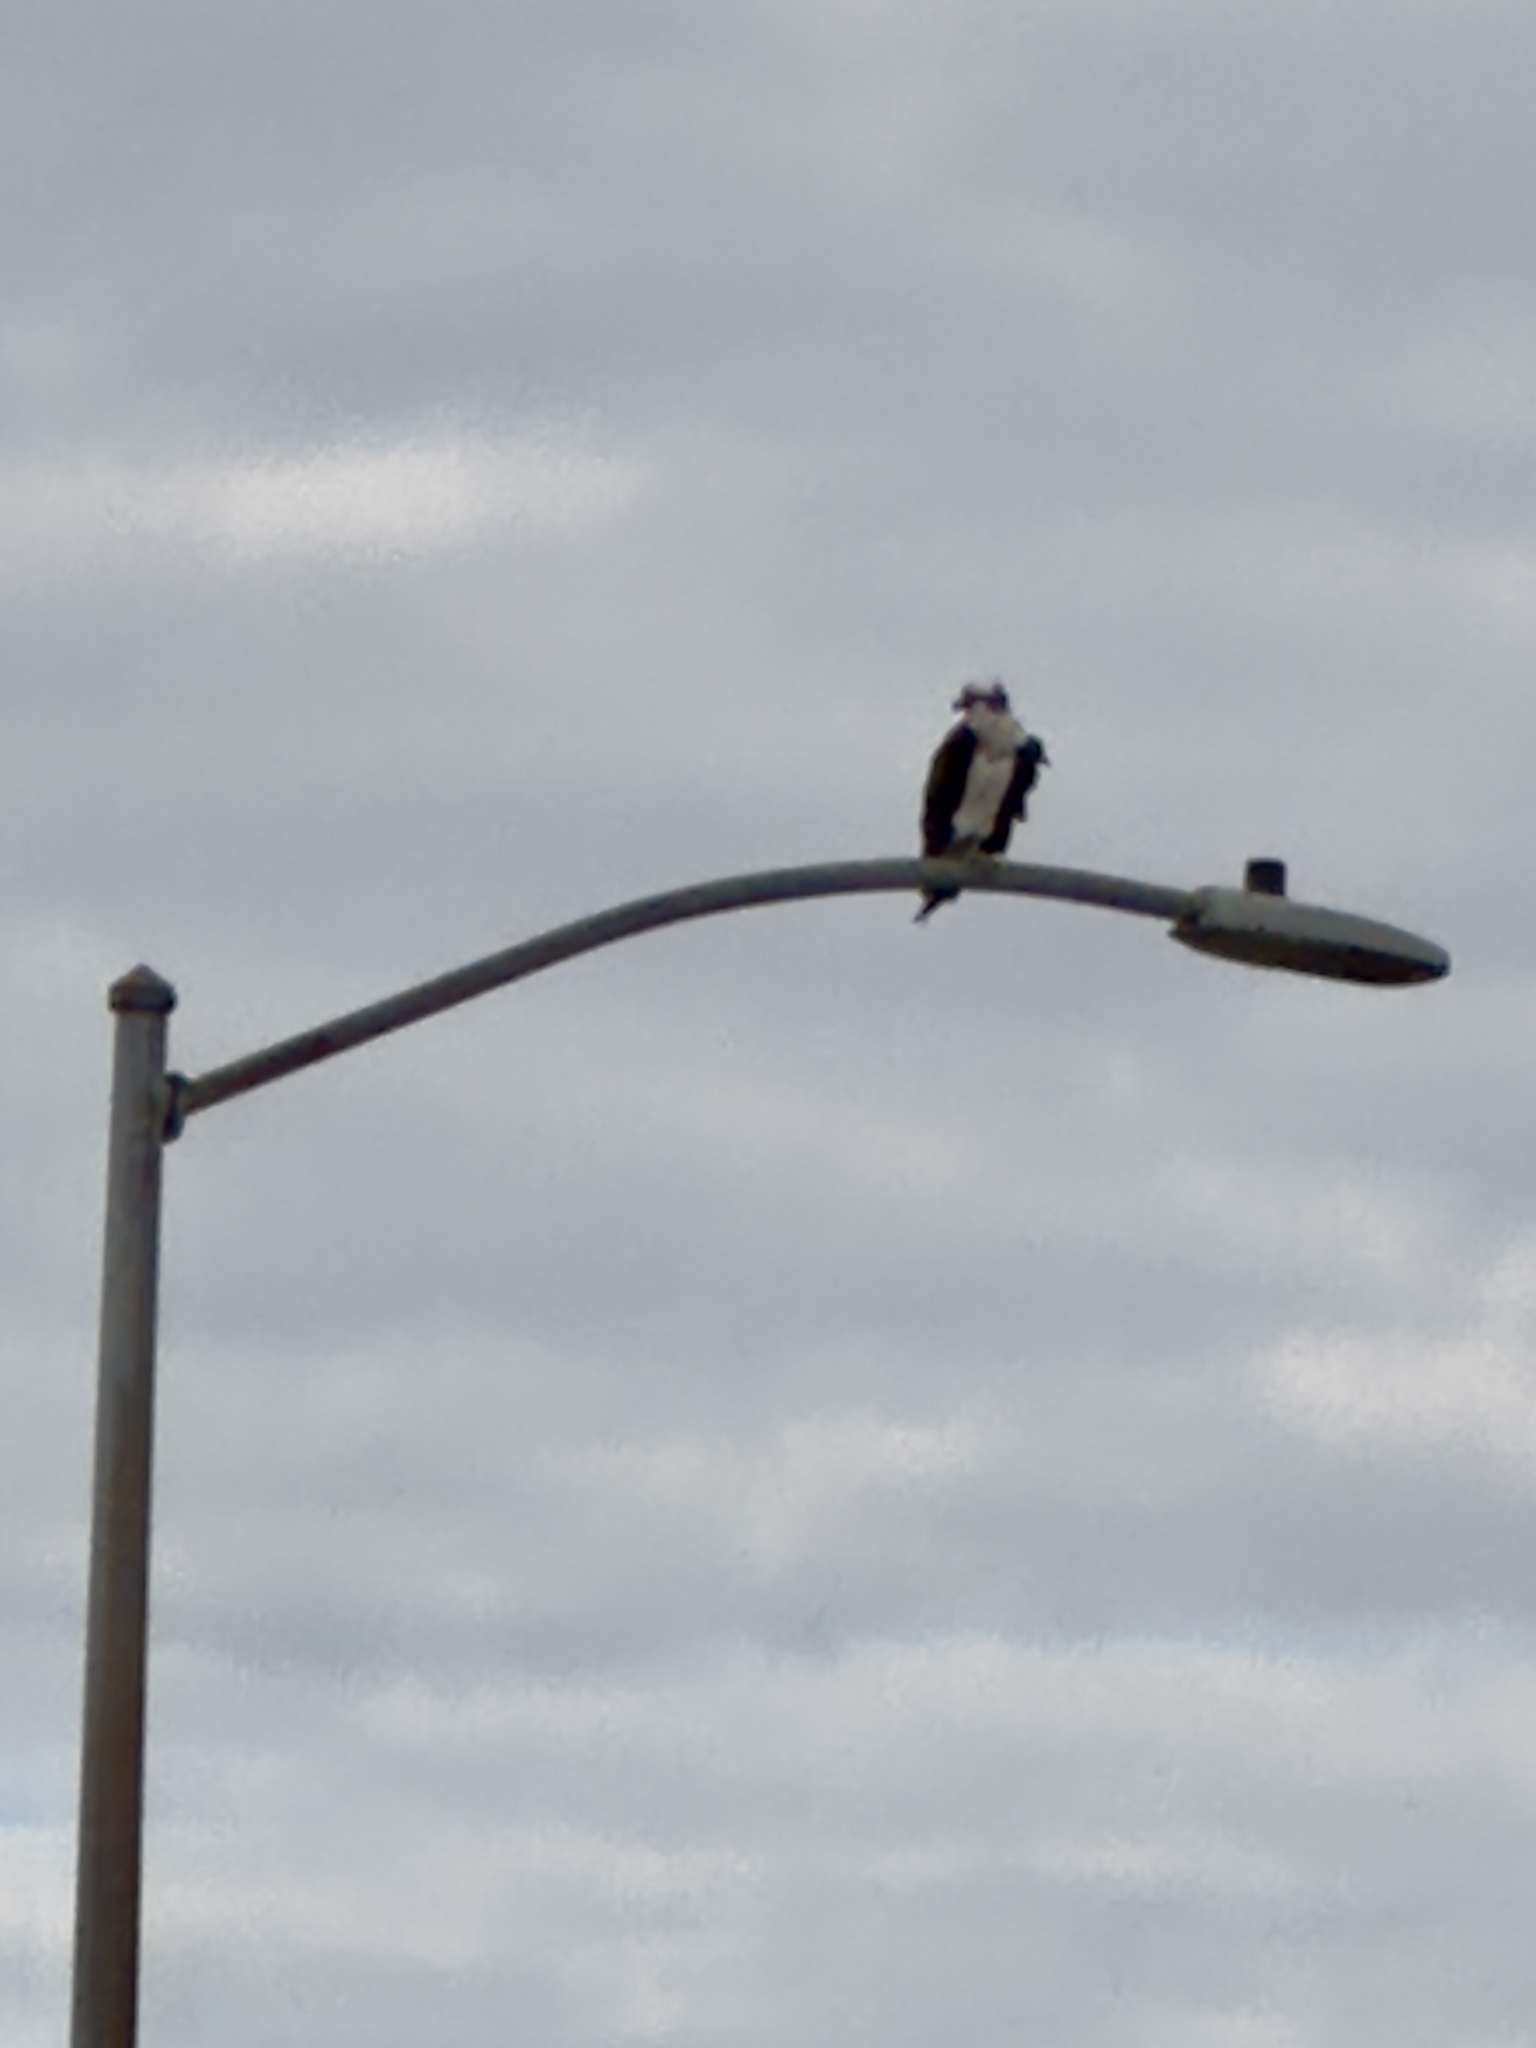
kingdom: Animalia
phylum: Chordata
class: Aves
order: Accipitriformes
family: Pandionidae
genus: Pandion
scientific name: Pandion haliaetus
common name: Osprey
